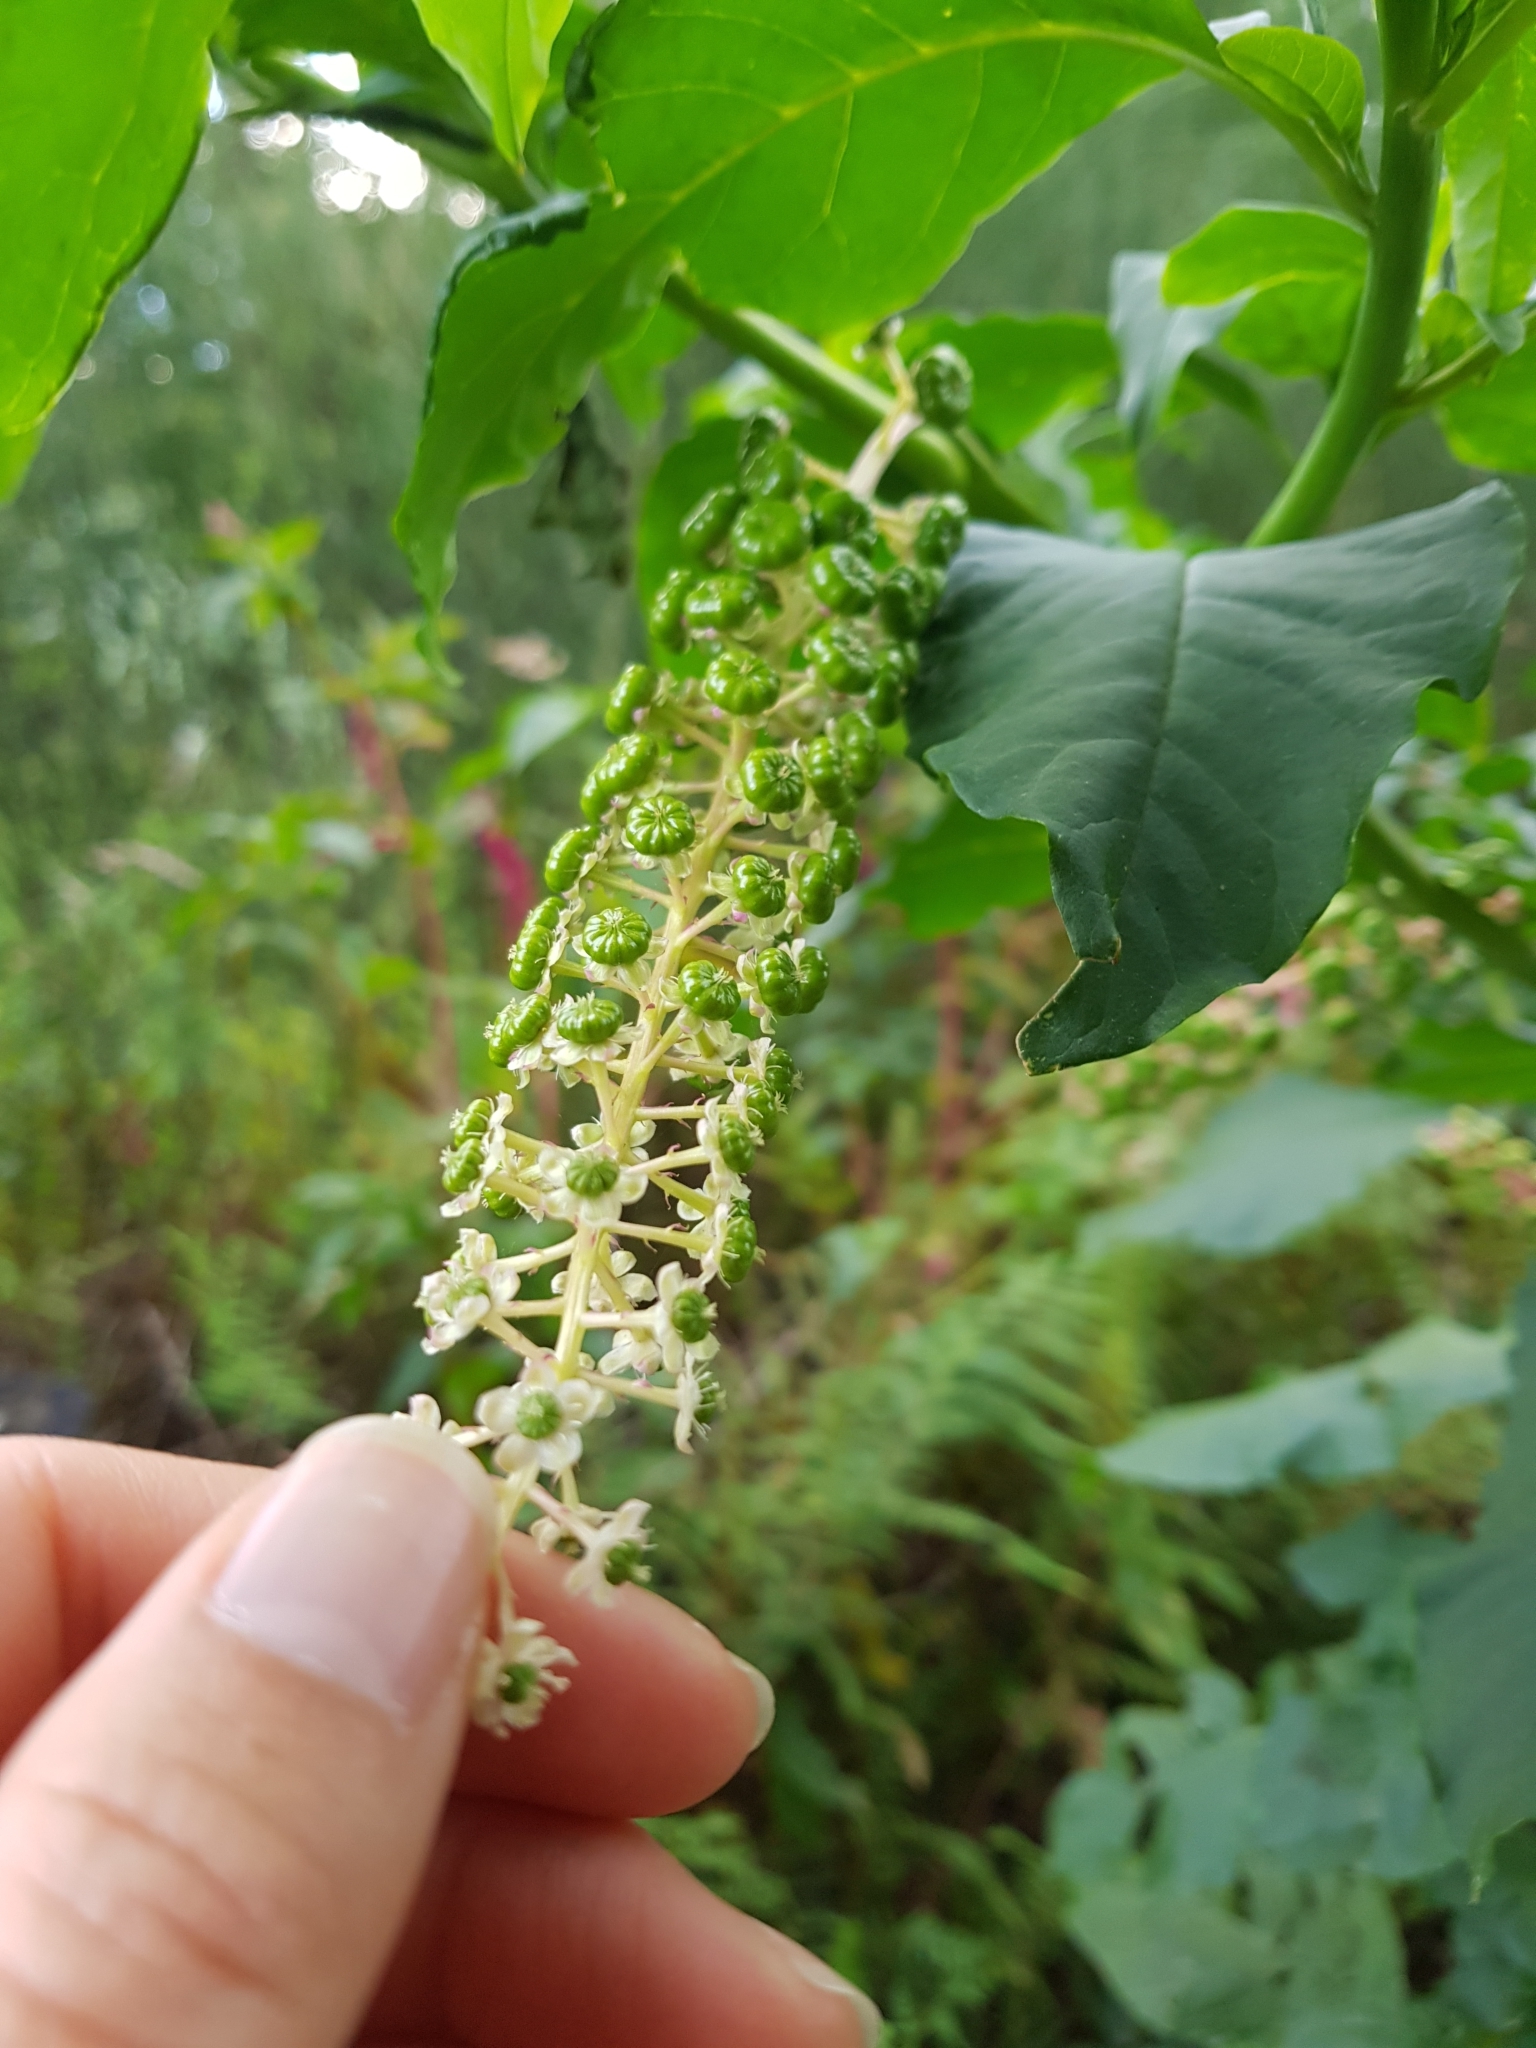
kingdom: Plantae
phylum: Tracheophyta
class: Magnoliopsida
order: Caryophyllales
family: Phytolaccaceae
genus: Phytolacca
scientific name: Phytolacca americana
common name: American pokeweed
